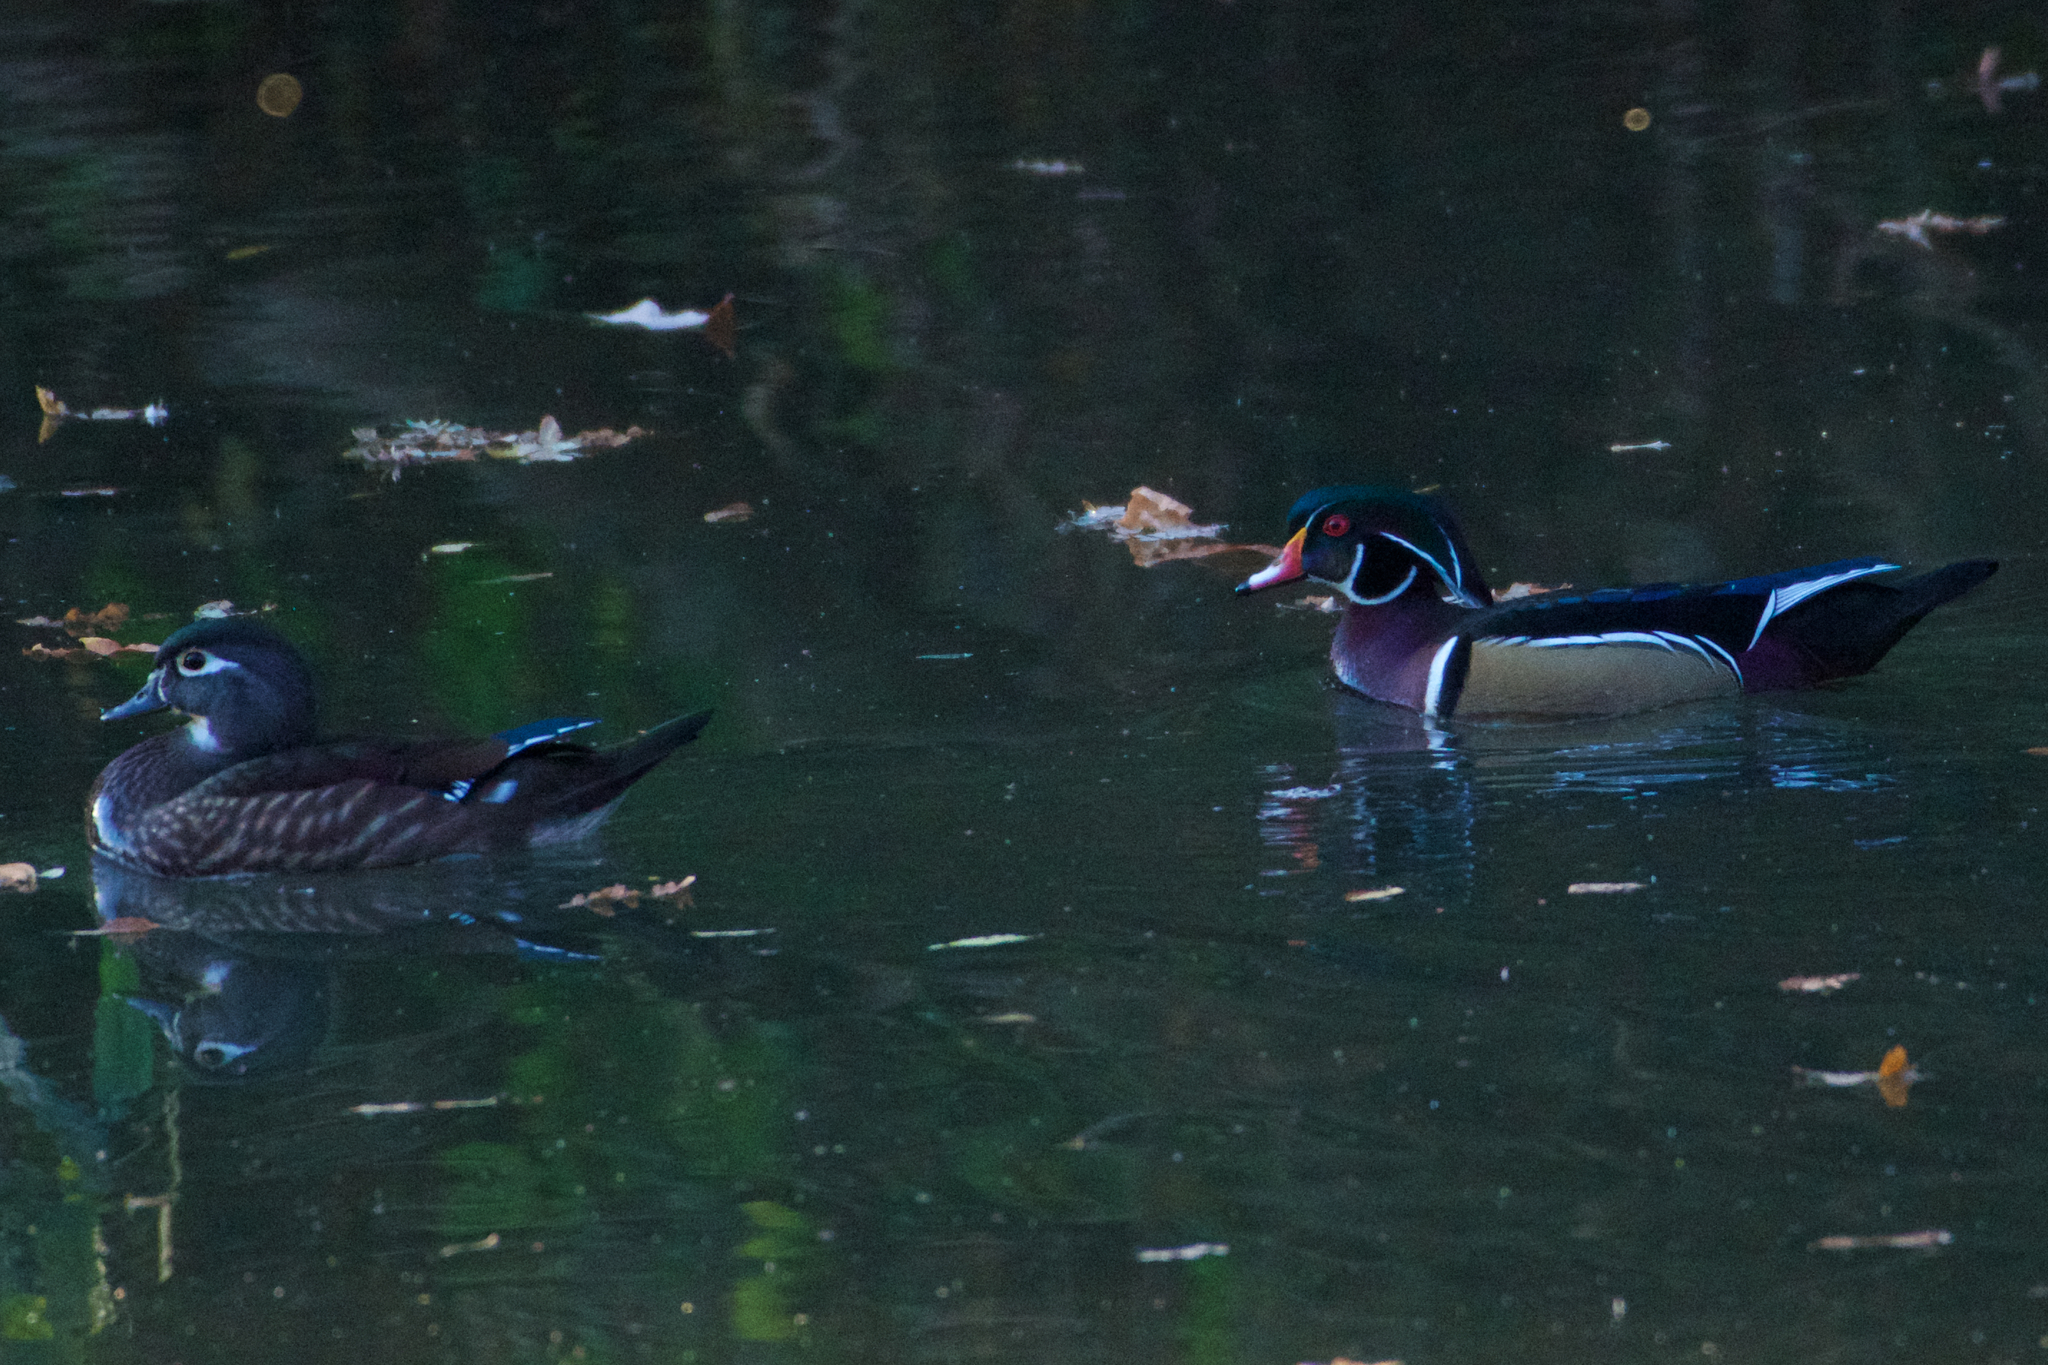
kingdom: Animalia
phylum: Chordata
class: Aves
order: Anseriformes
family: Anatidae
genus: Aix
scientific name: Aix sponsa
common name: Wood duck
